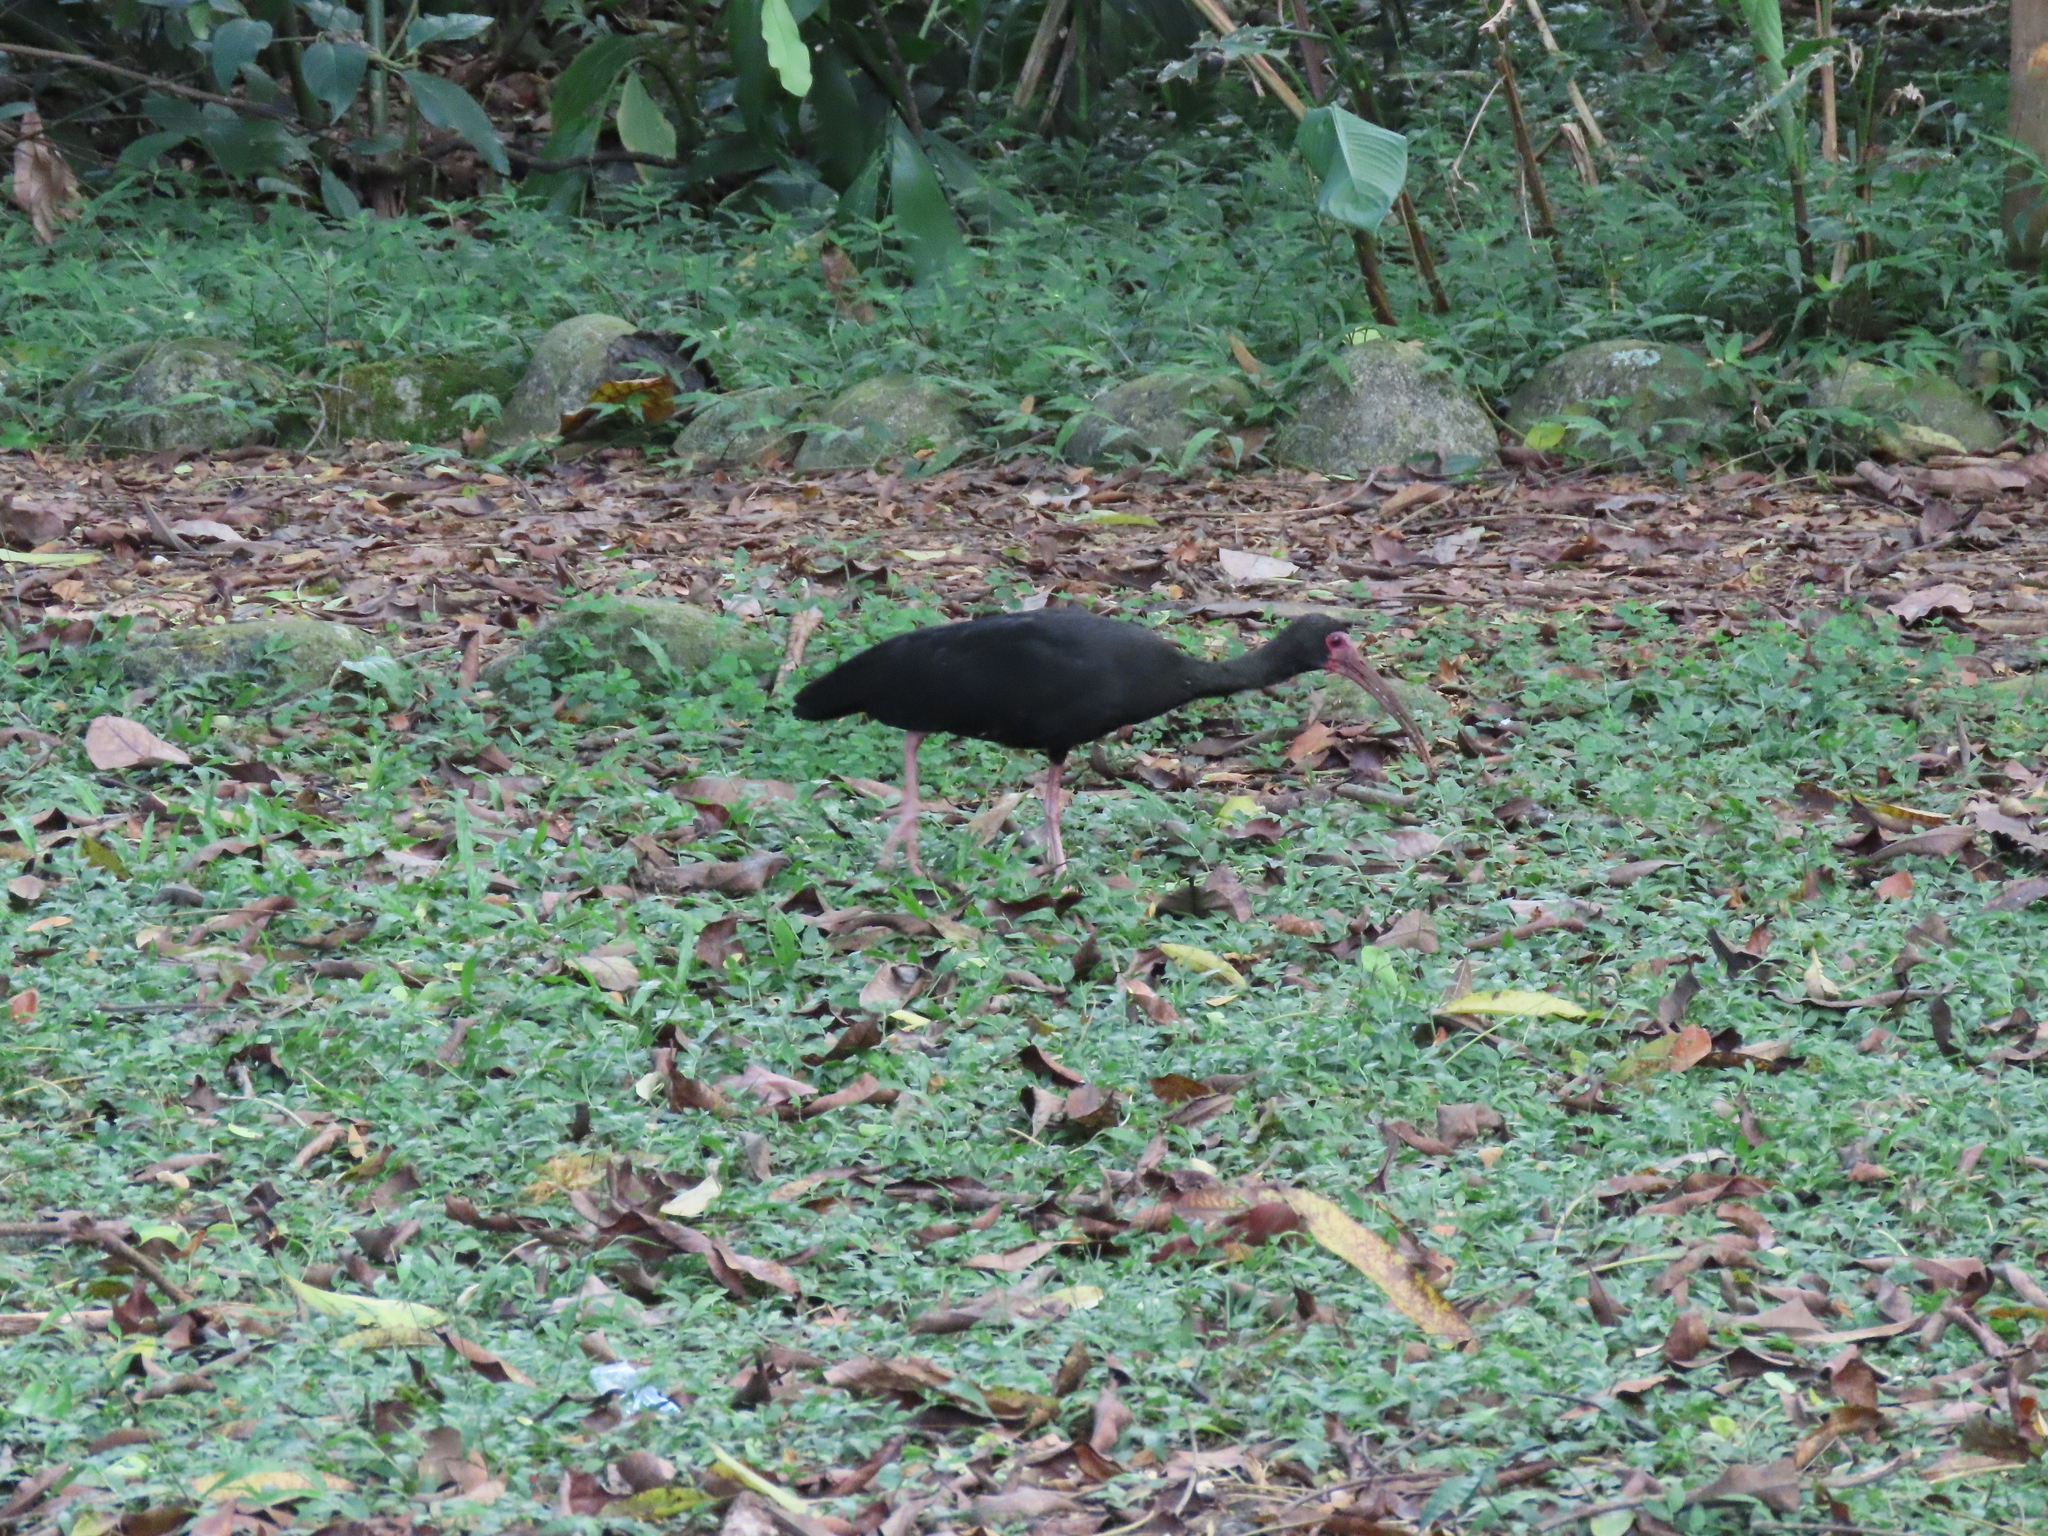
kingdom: Animalia
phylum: Chordata
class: Aves
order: Pelecaniformes
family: Threskiornithidae
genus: Phimosus
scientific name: Phimosus infuscatus
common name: Bare-faced ibis
